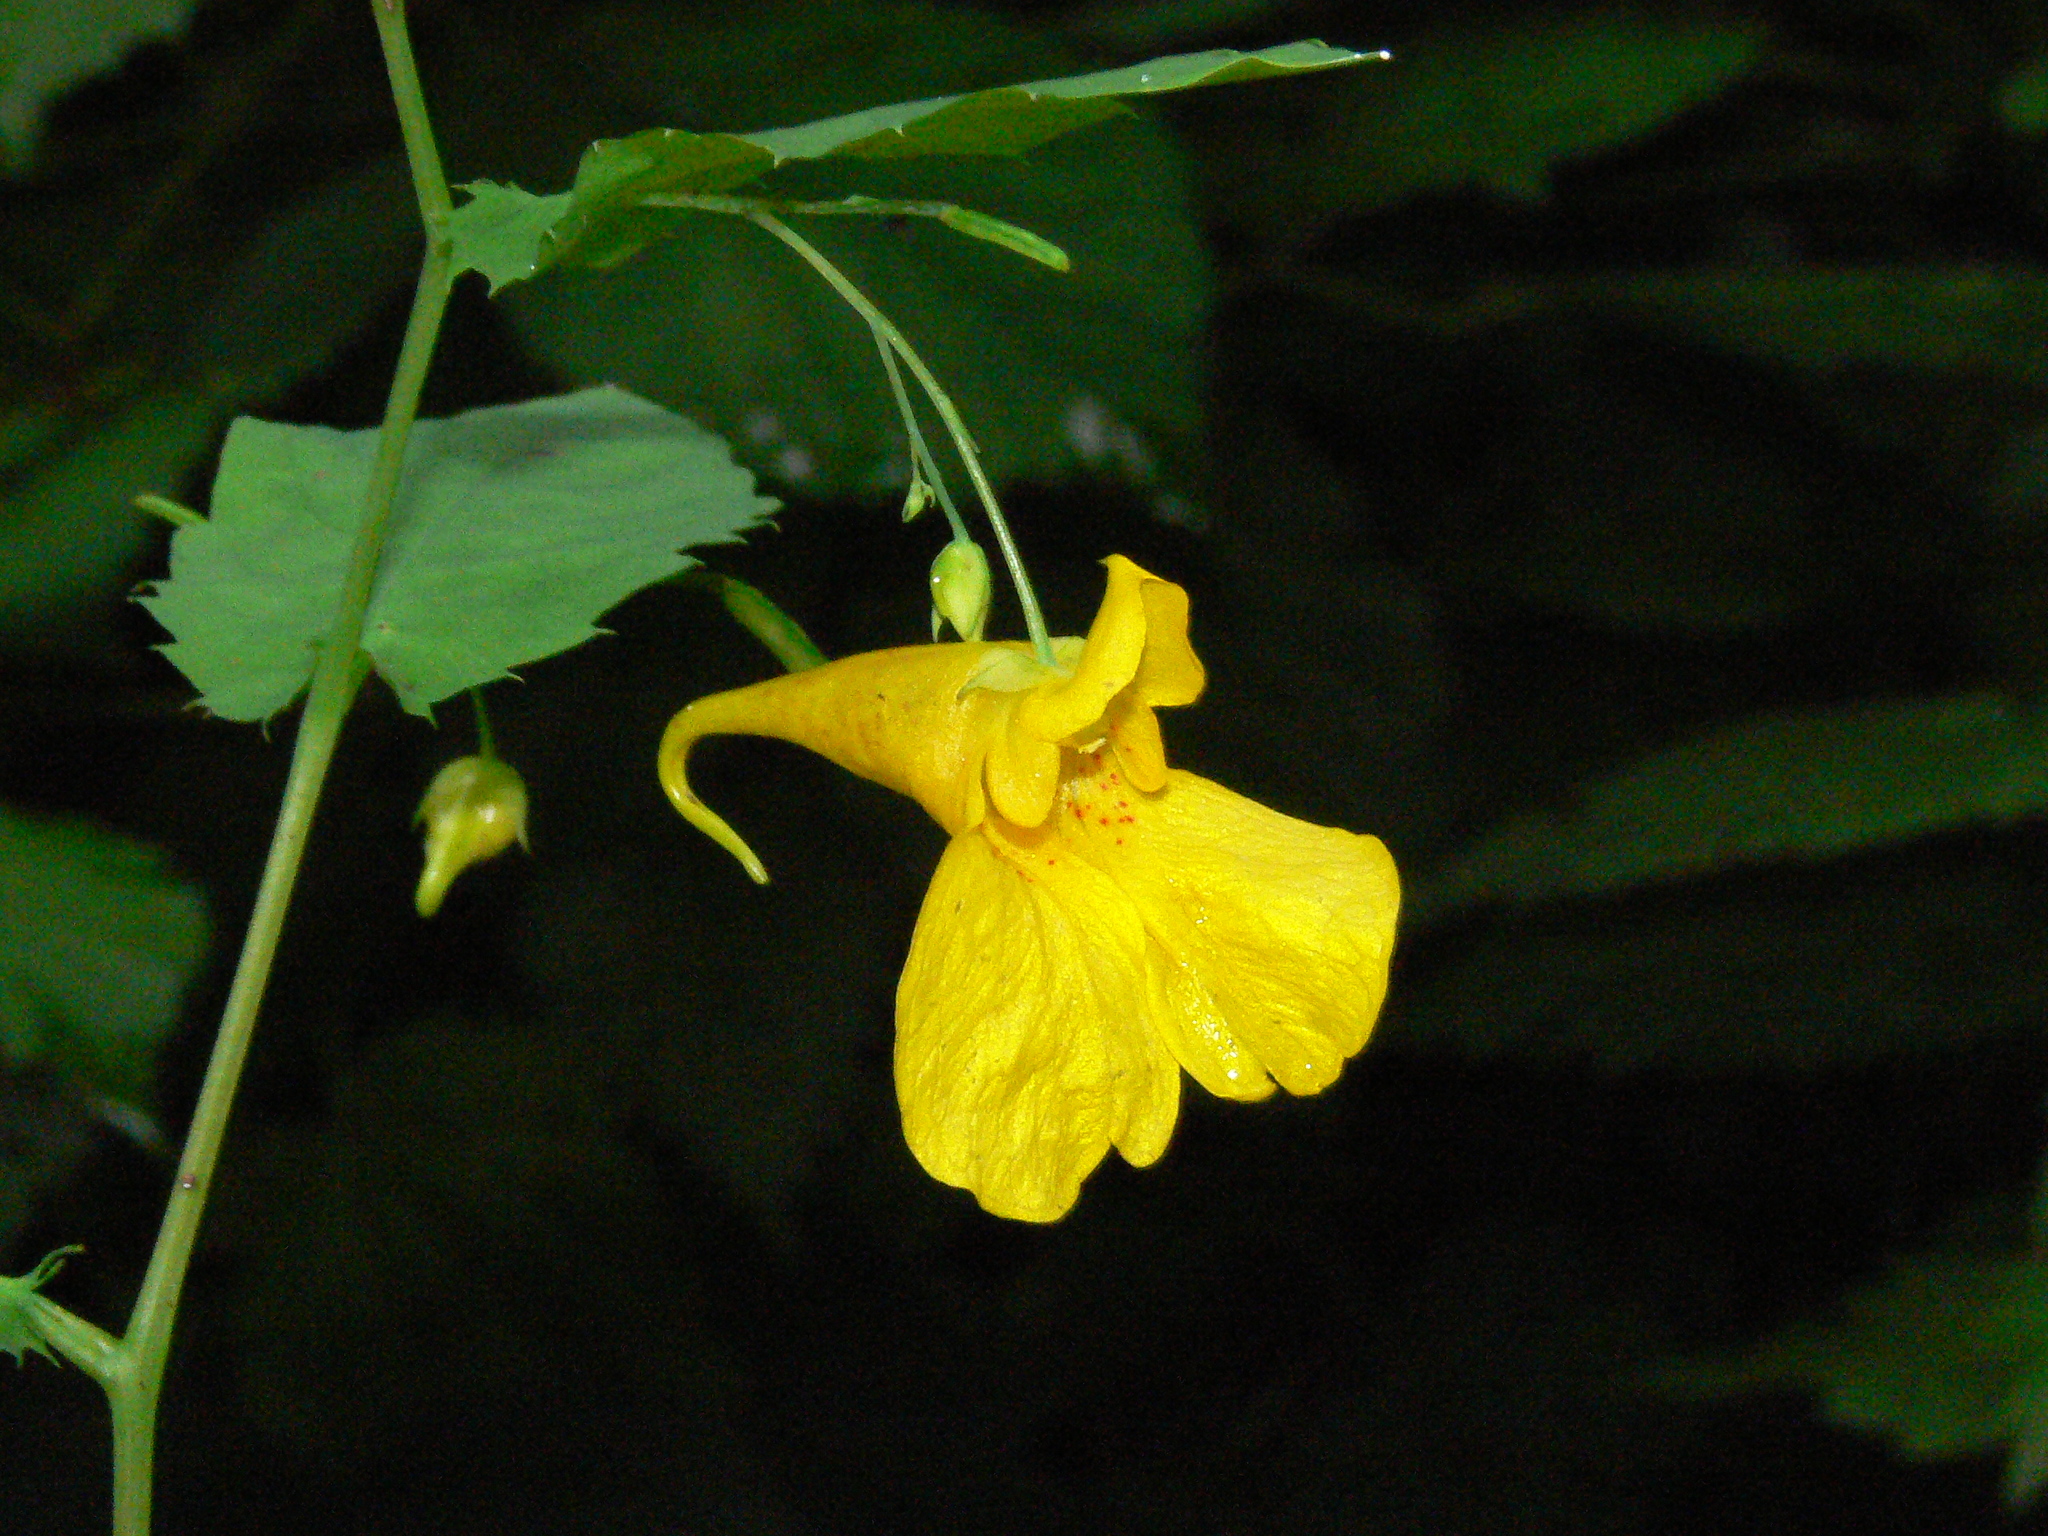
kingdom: Plantae
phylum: Tracheophyta
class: Magnoliopsida
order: Ericales
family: Balsaminaceae
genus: Impatiens
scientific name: Impatiens noli-tangere
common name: Touch-me-not balsam
